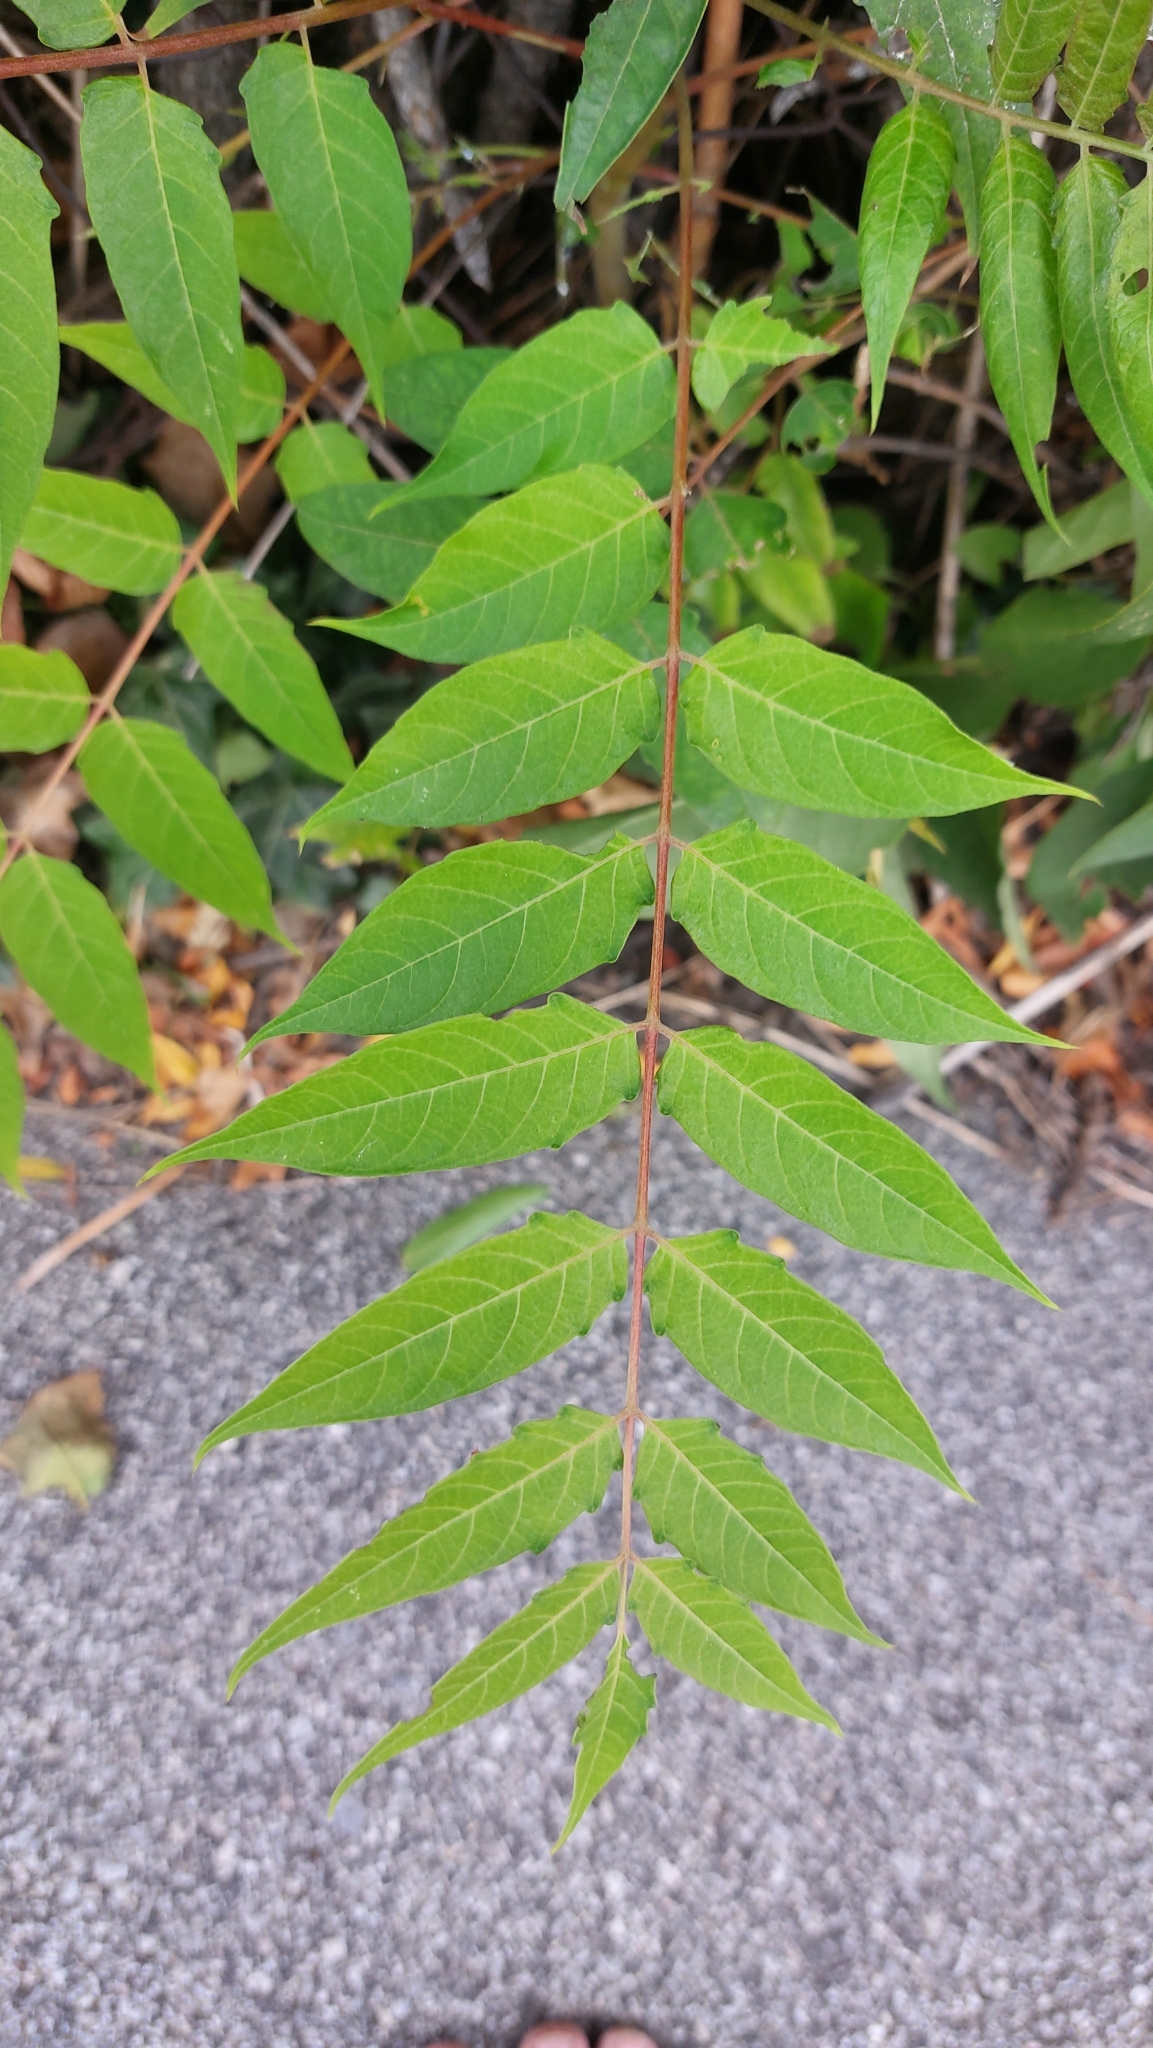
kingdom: Plantae
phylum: Tracheophyta
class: Magnoliopsida
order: Sapindales
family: Simaroubaceae
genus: Ailanthus
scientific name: Ailanthus altissima
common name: Tree-of-heaven
